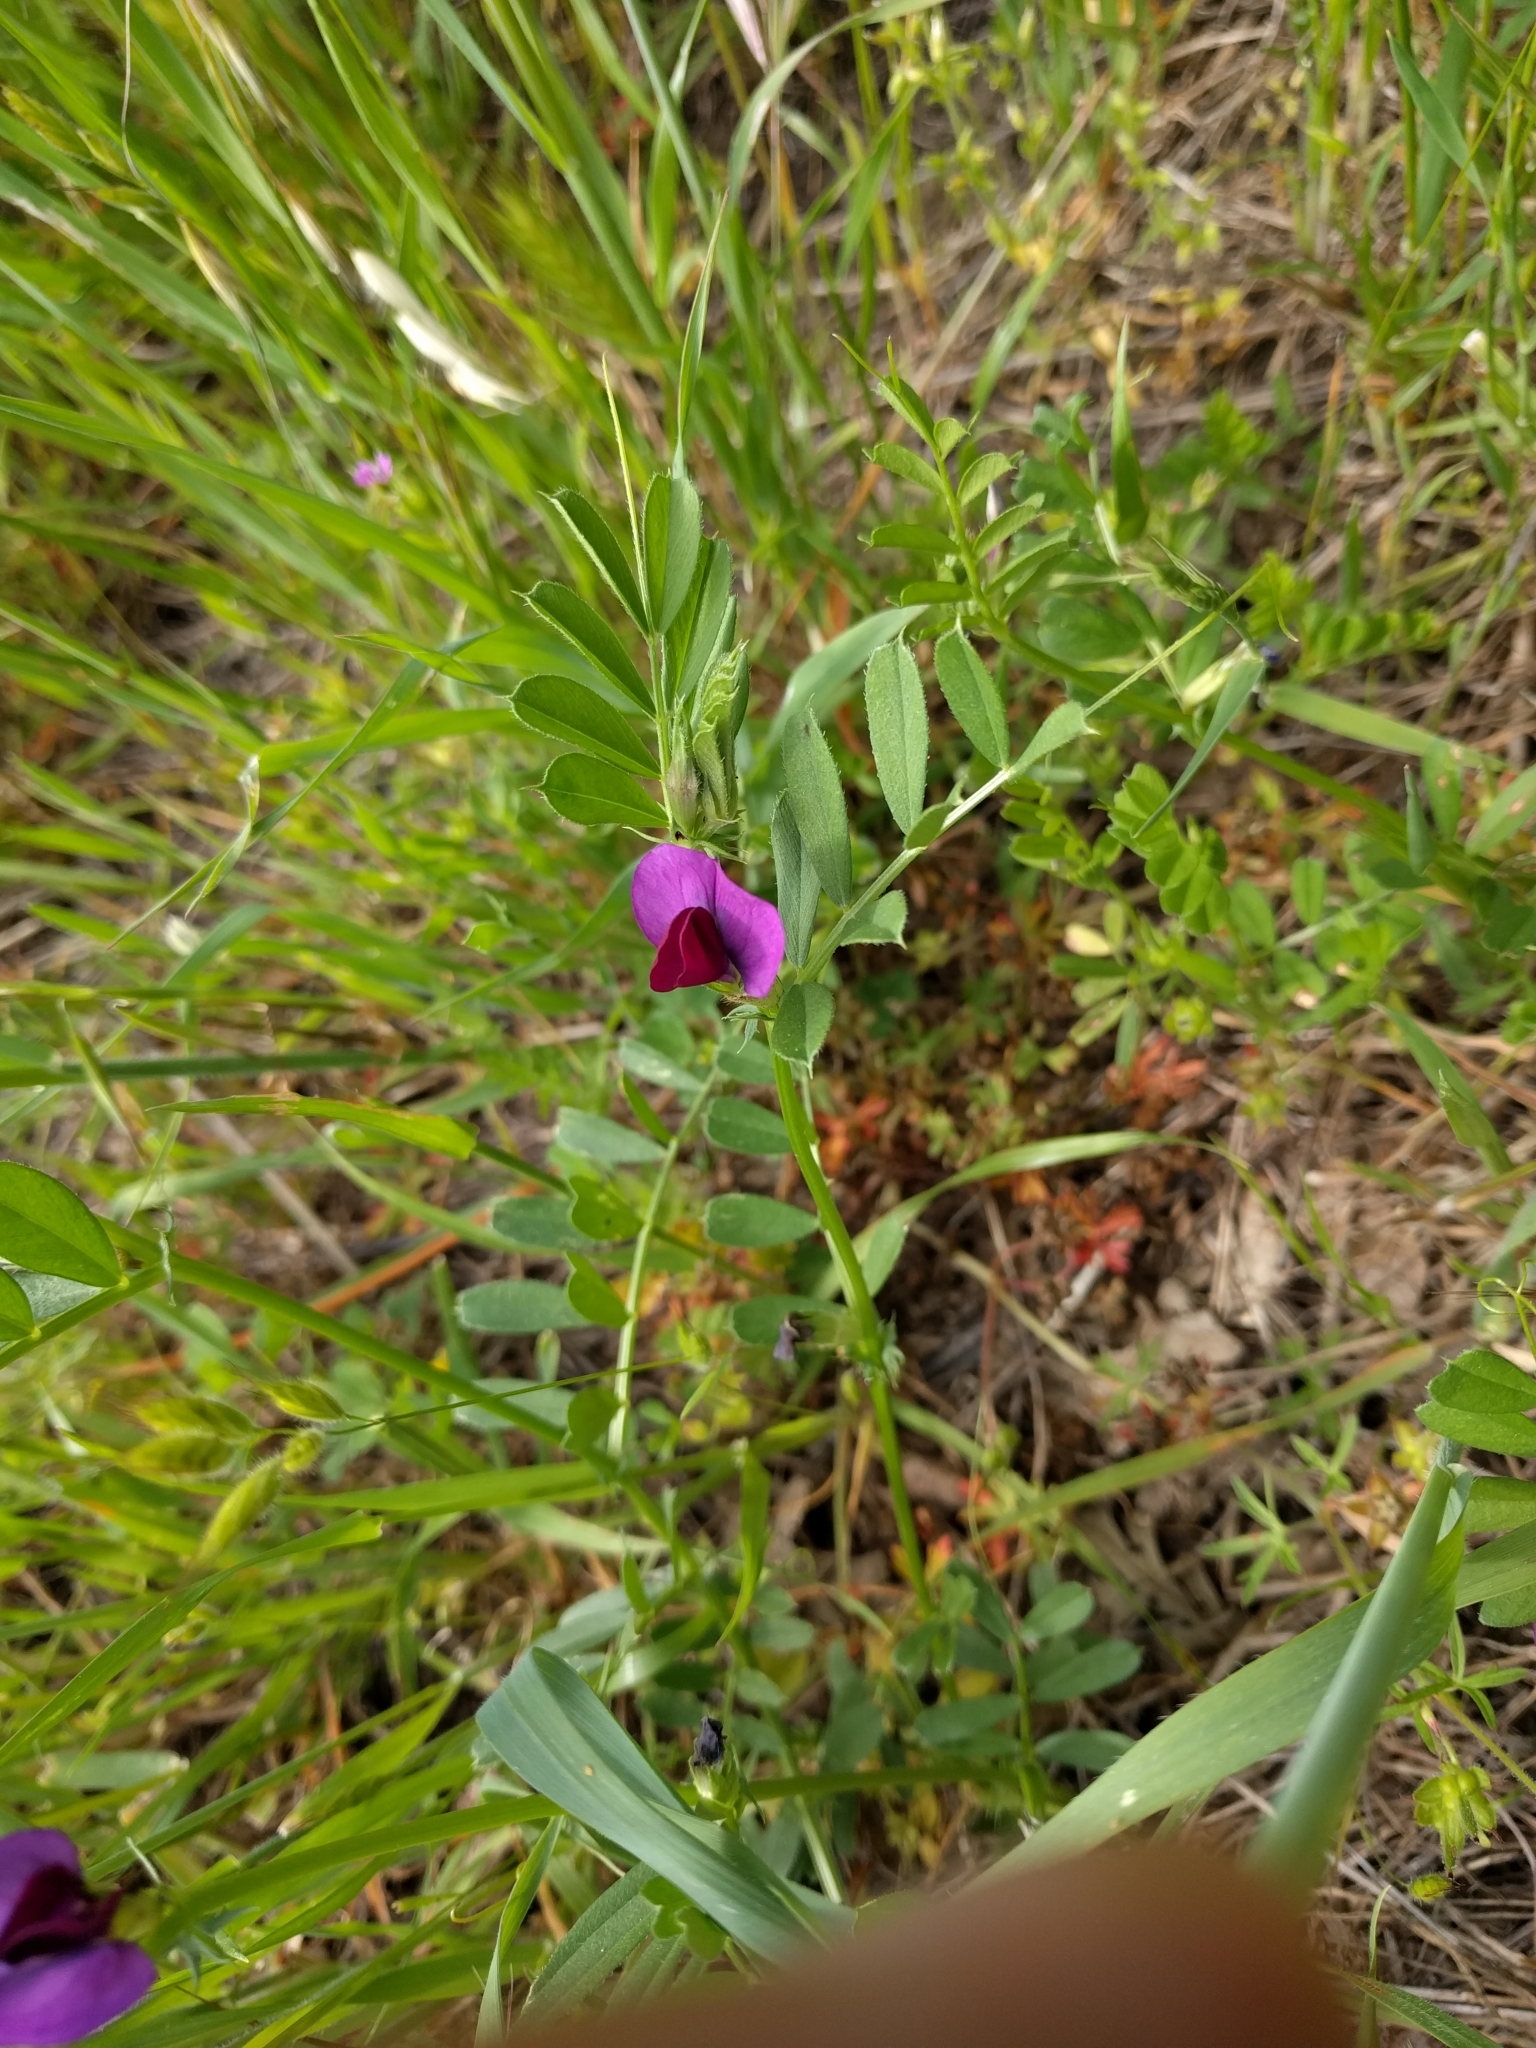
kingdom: Plantae
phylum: Tracheophyta
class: Magnoliopsida
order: Fabales
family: Fabaceae
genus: Vicia
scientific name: Vicia sativa
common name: Garden vetch
